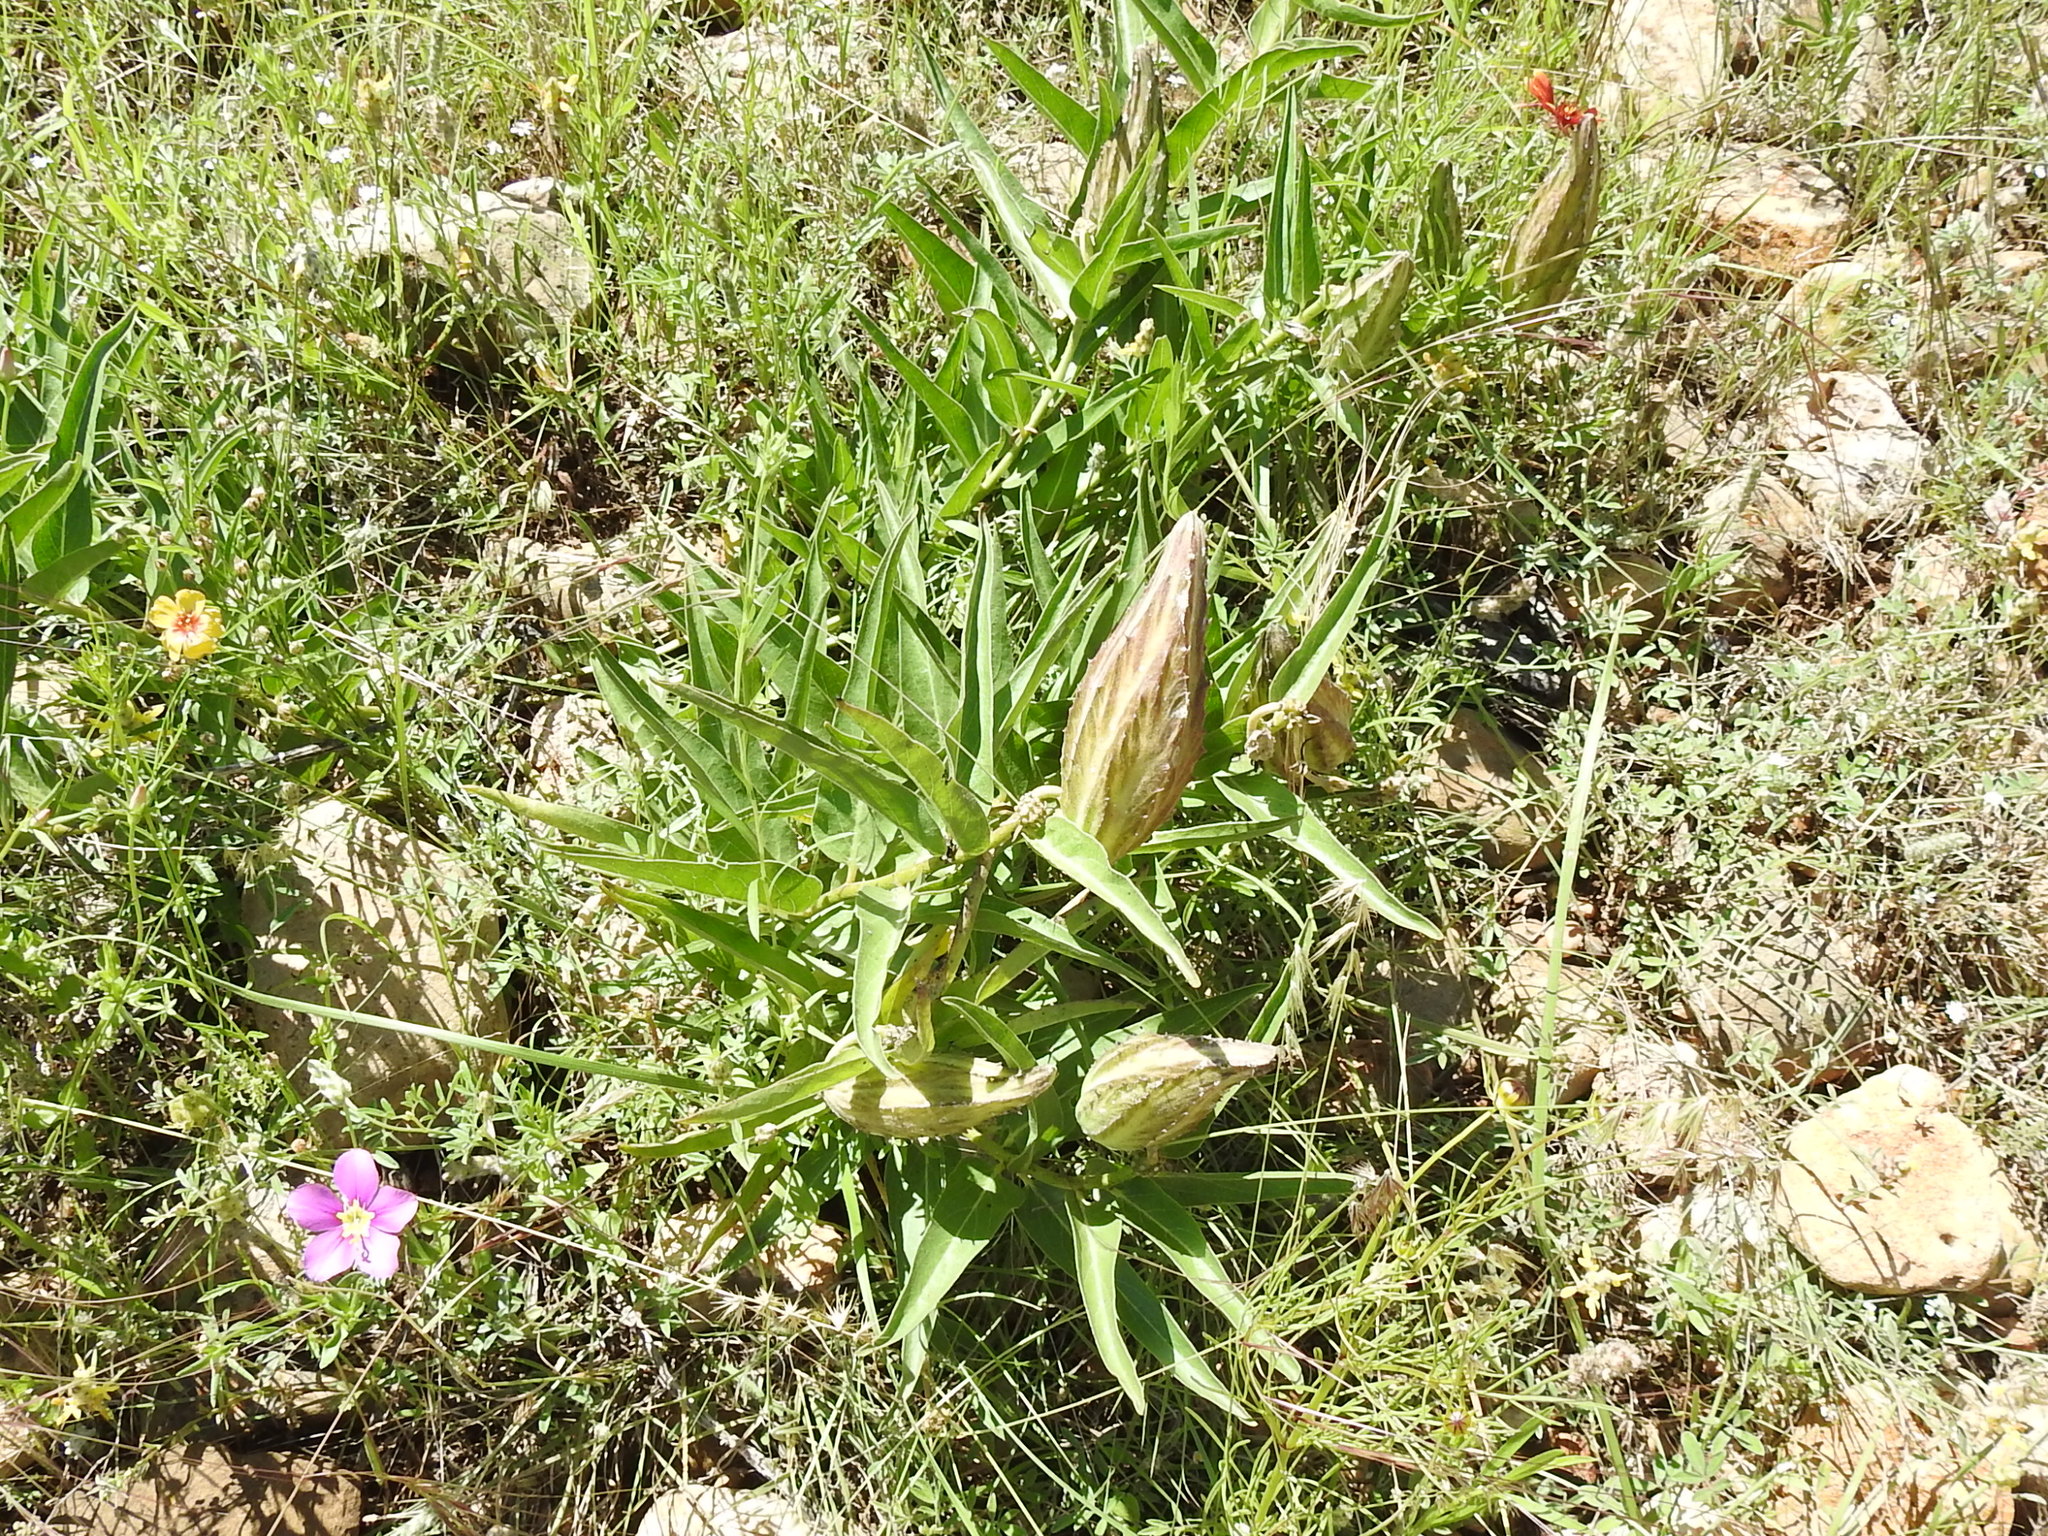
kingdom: Plantae
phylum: Tracheophyta
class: Magnoliopsida
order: Gentianales
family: Apocynaceae
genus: Asclepias
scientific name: Asclepias asperula
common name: Antelope horns
